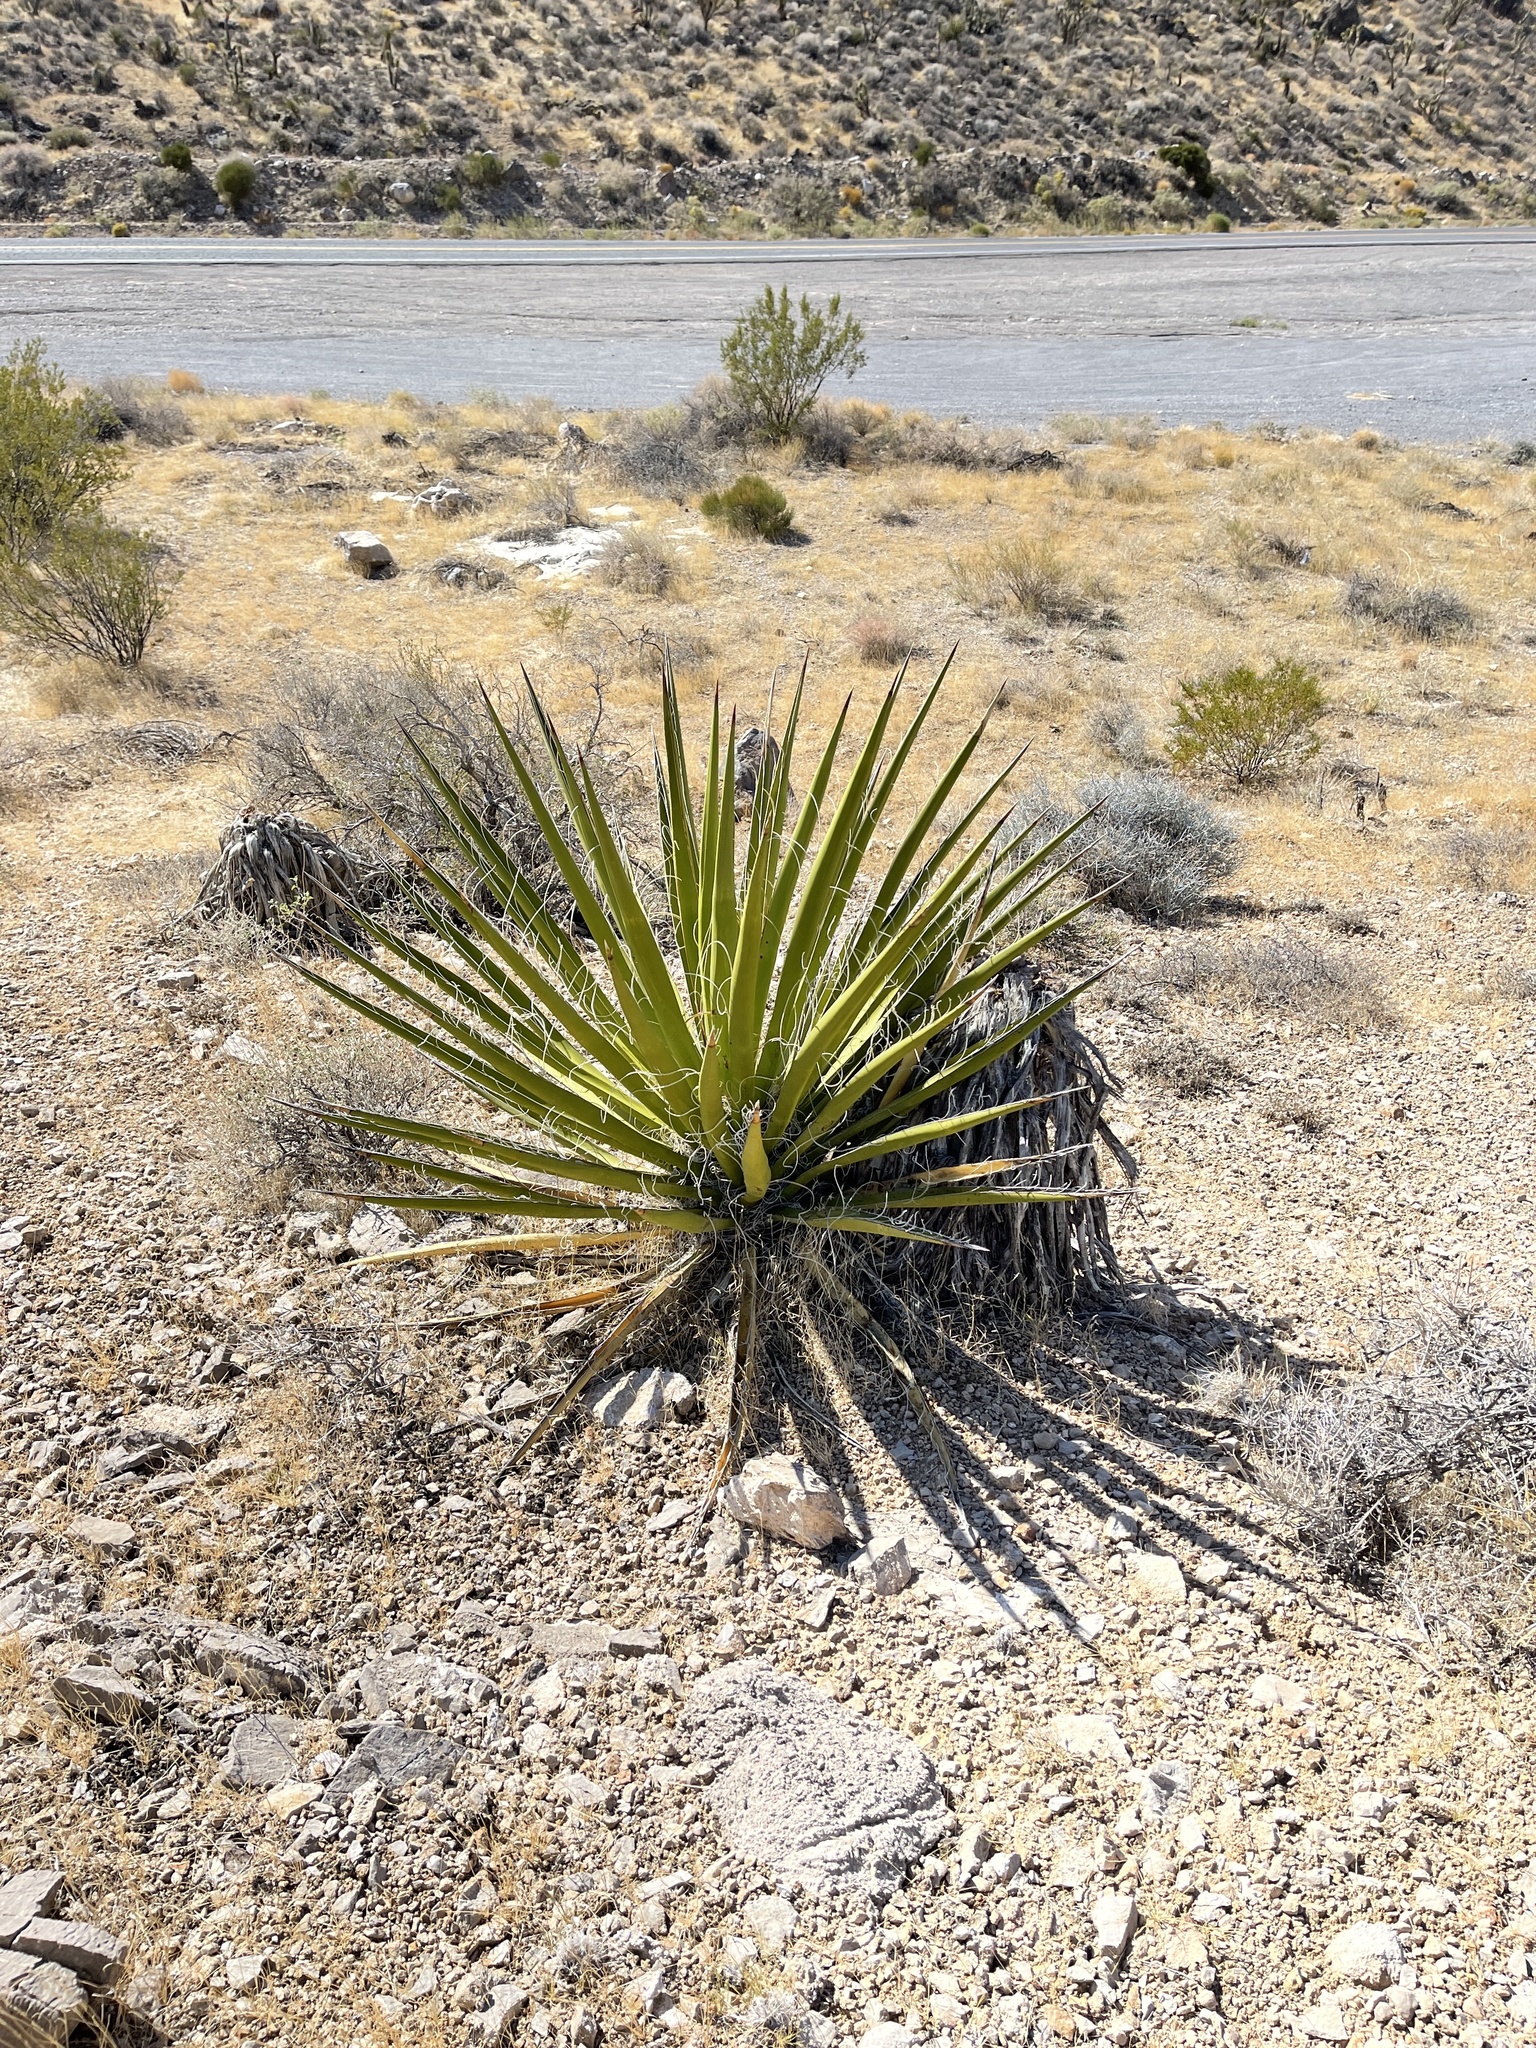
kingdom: Plantae
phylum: Tracheophyta
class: Liliopsida
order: Asparagales
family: Asparagaceae
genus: Yucca
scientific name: Yucca schidigera
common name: Mojave yucca
